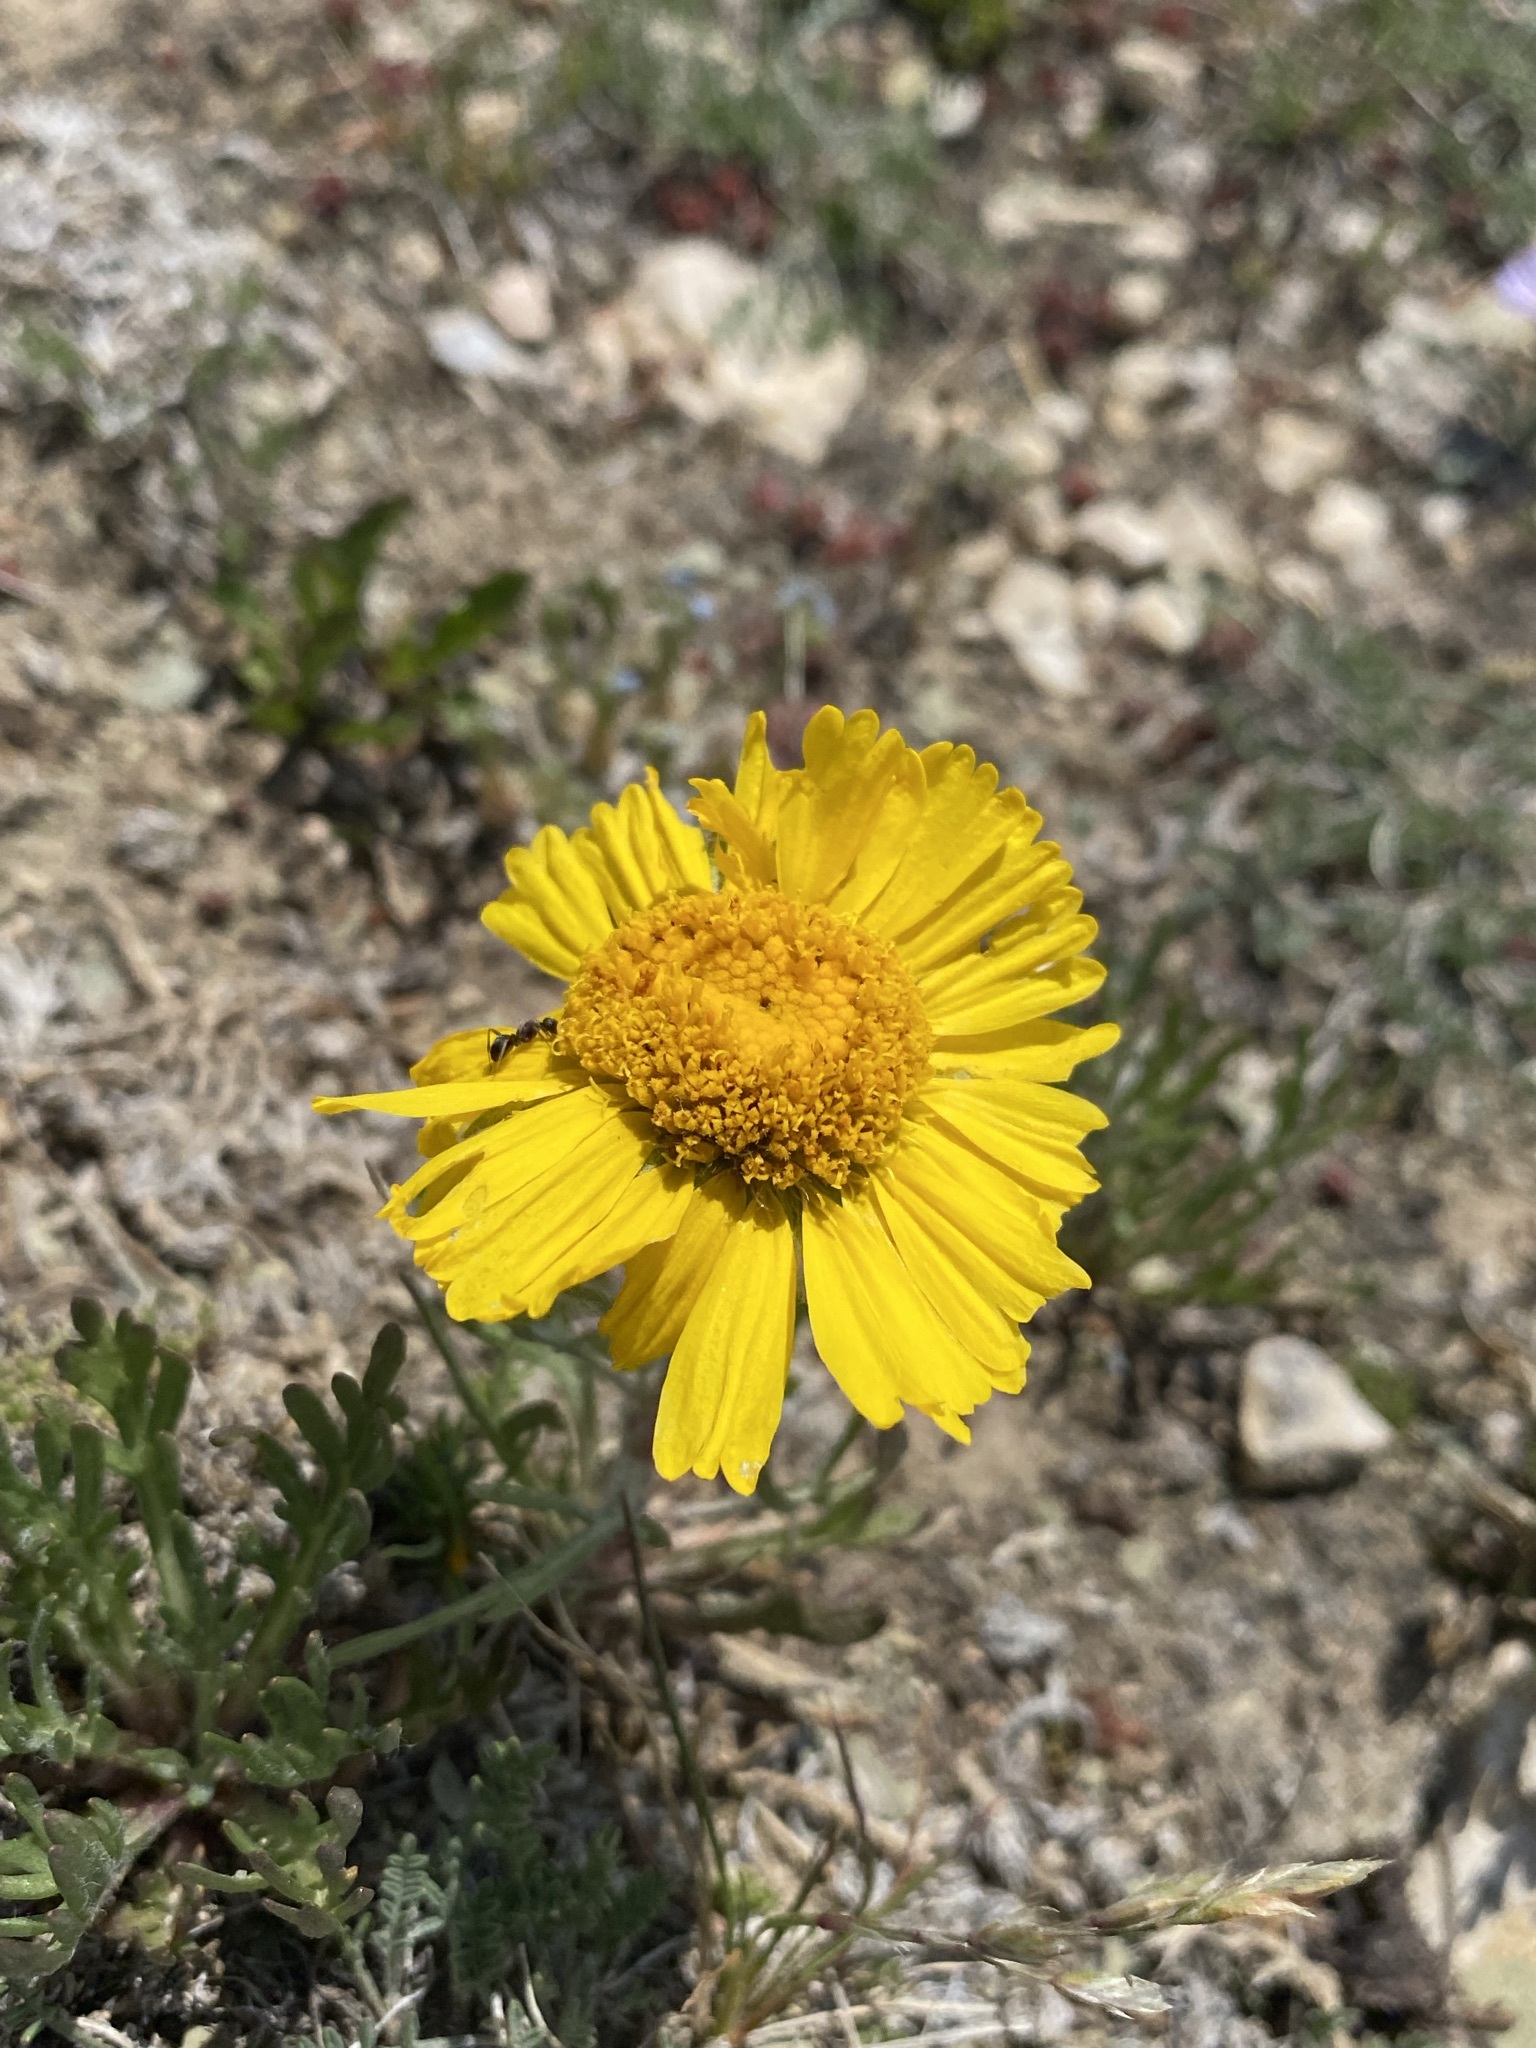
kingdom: Plantae
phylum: Tracheophyta
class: Magnoliopsida
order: Asterales
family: Asteraceae
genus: Hymenoxys
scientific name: Hymenoxys grandiflora
